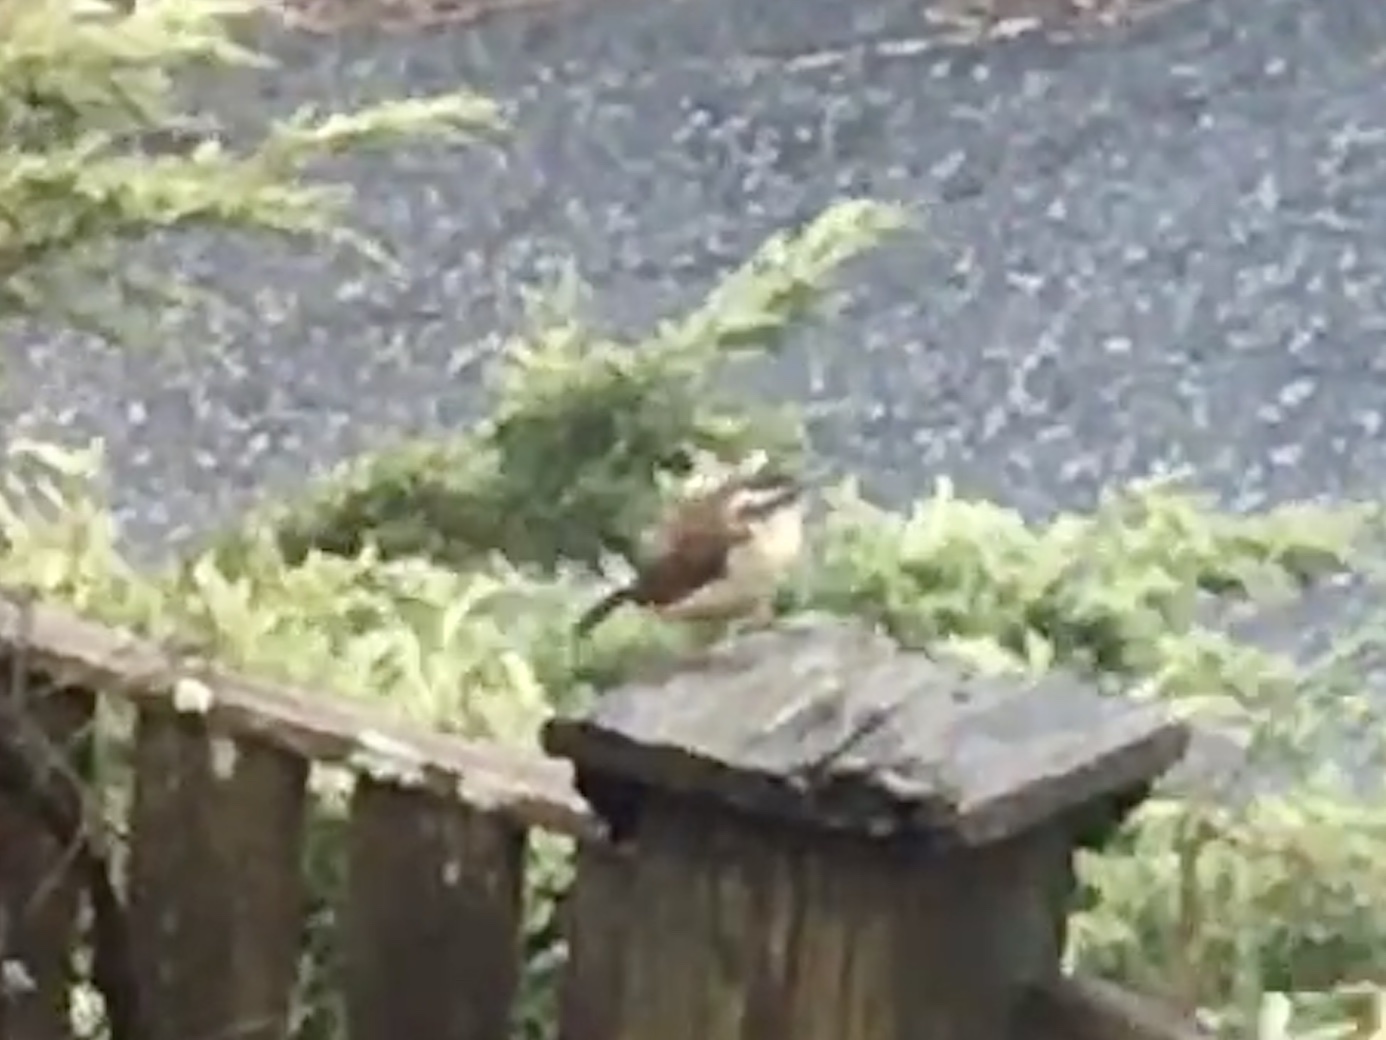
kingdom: Animalia
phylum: Chordata
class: Aves
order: Passeriformes
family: Troglodytidae
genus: Thryothorus
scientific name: Thryothorus ludovicianus
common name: Carolina wren
